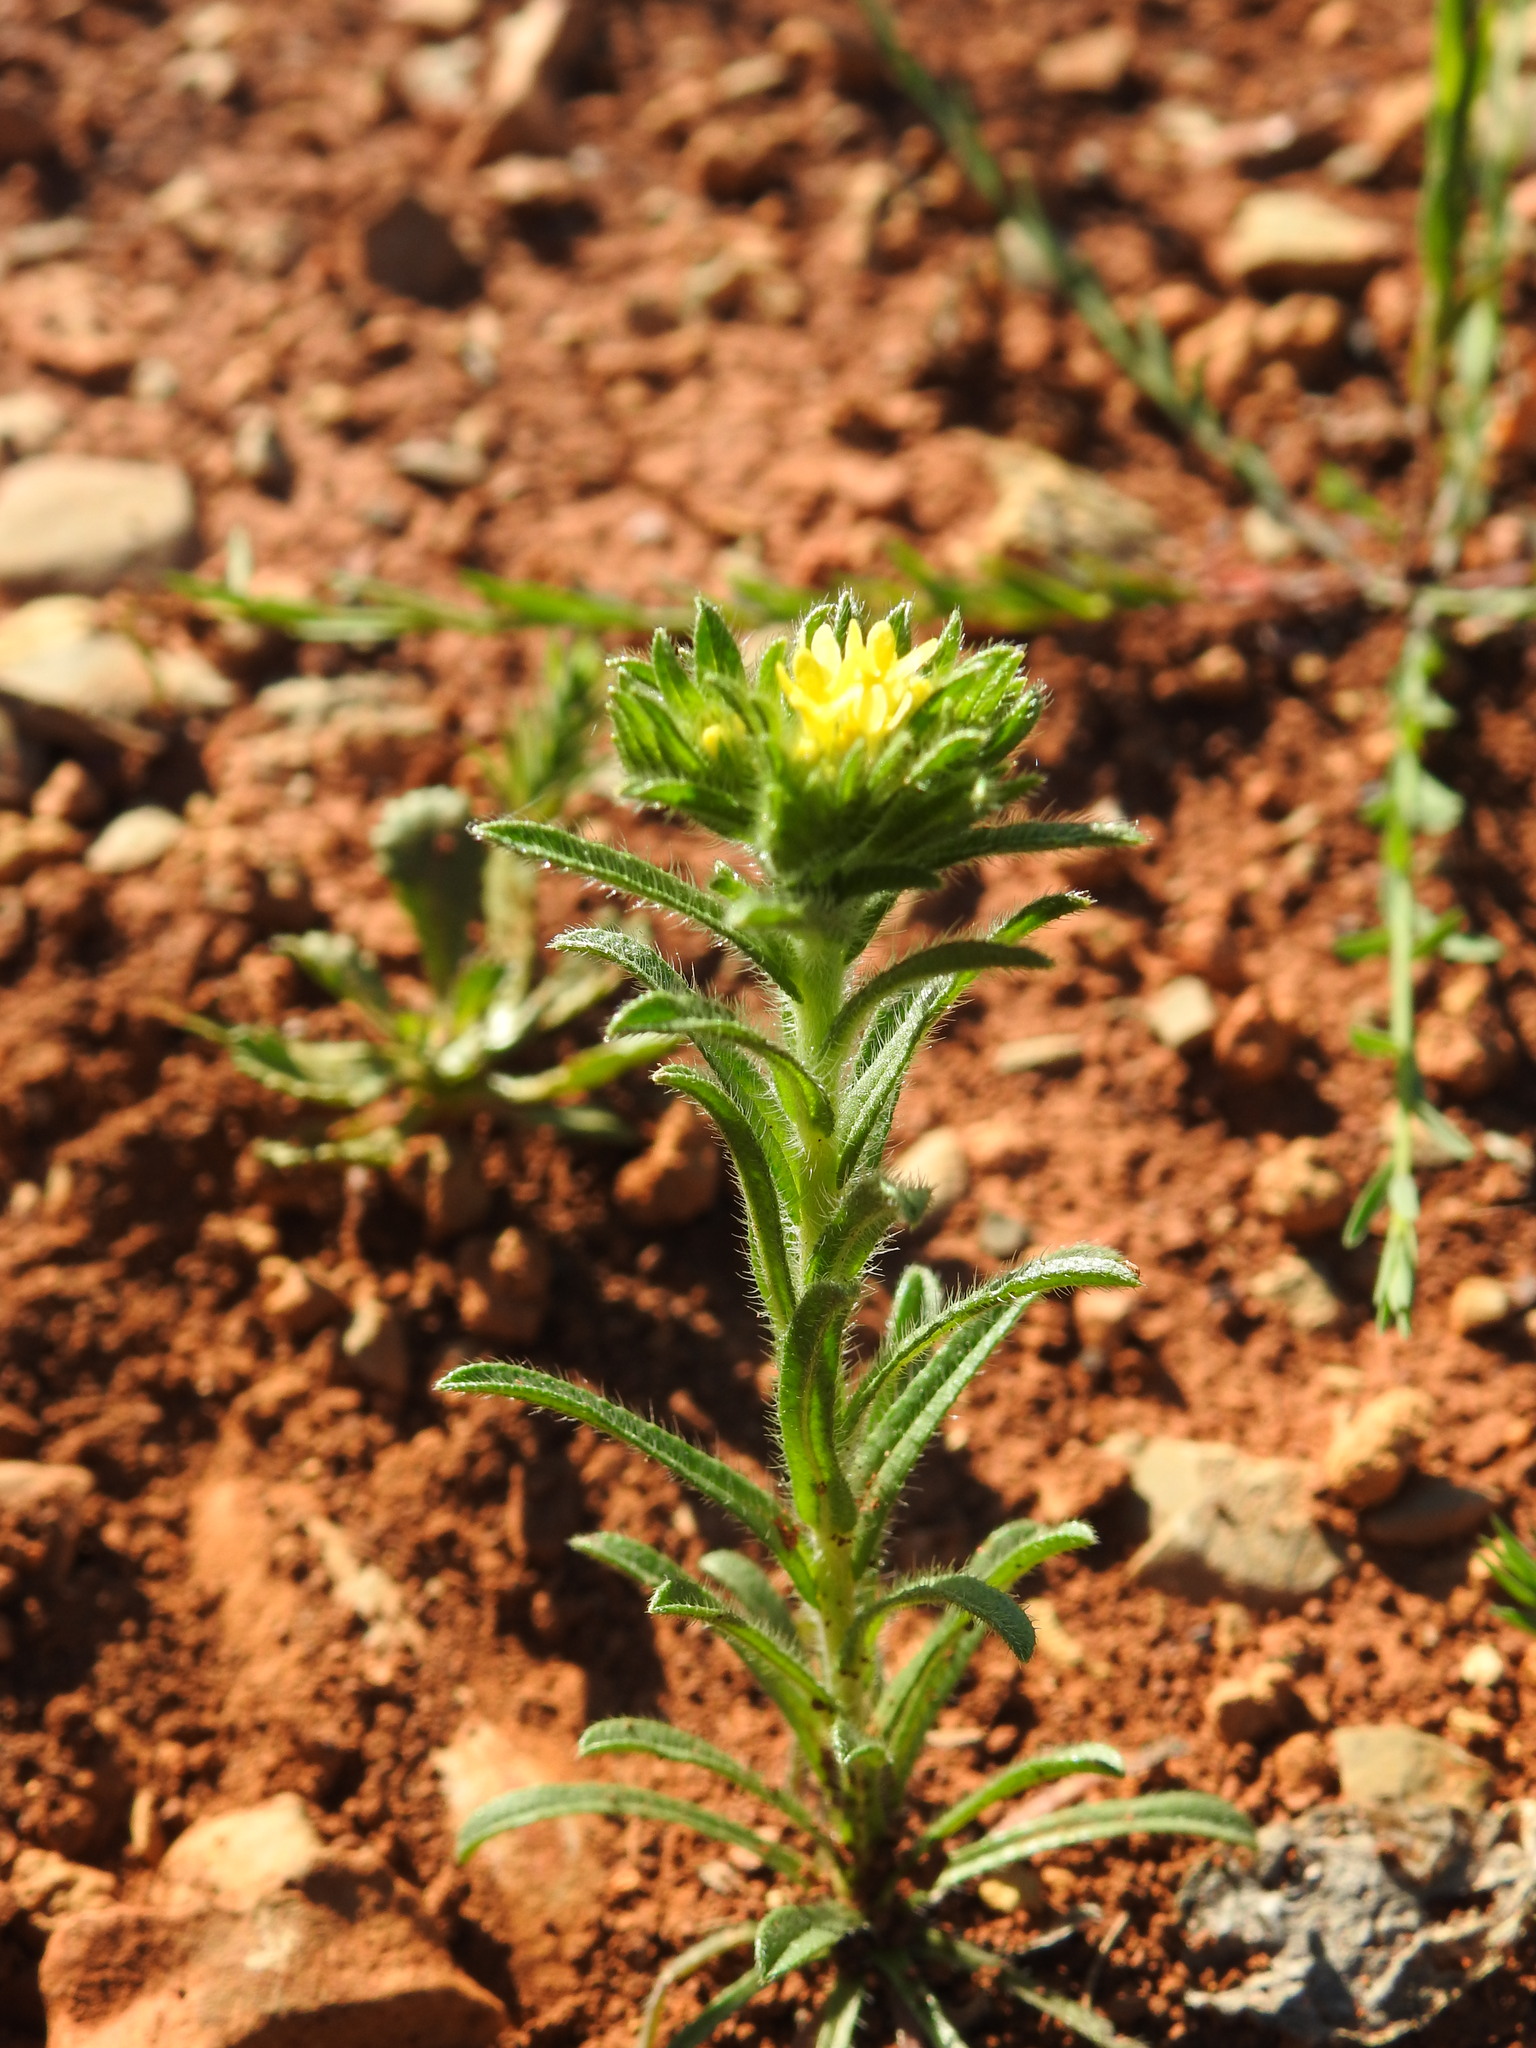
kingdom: Plantae
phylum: Tracheophyta
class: Magnoliopsida
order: Boraginales
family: Boraginaceae
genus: Neatostema
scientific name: Neatostema apulum
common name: Hairy sheepweed
